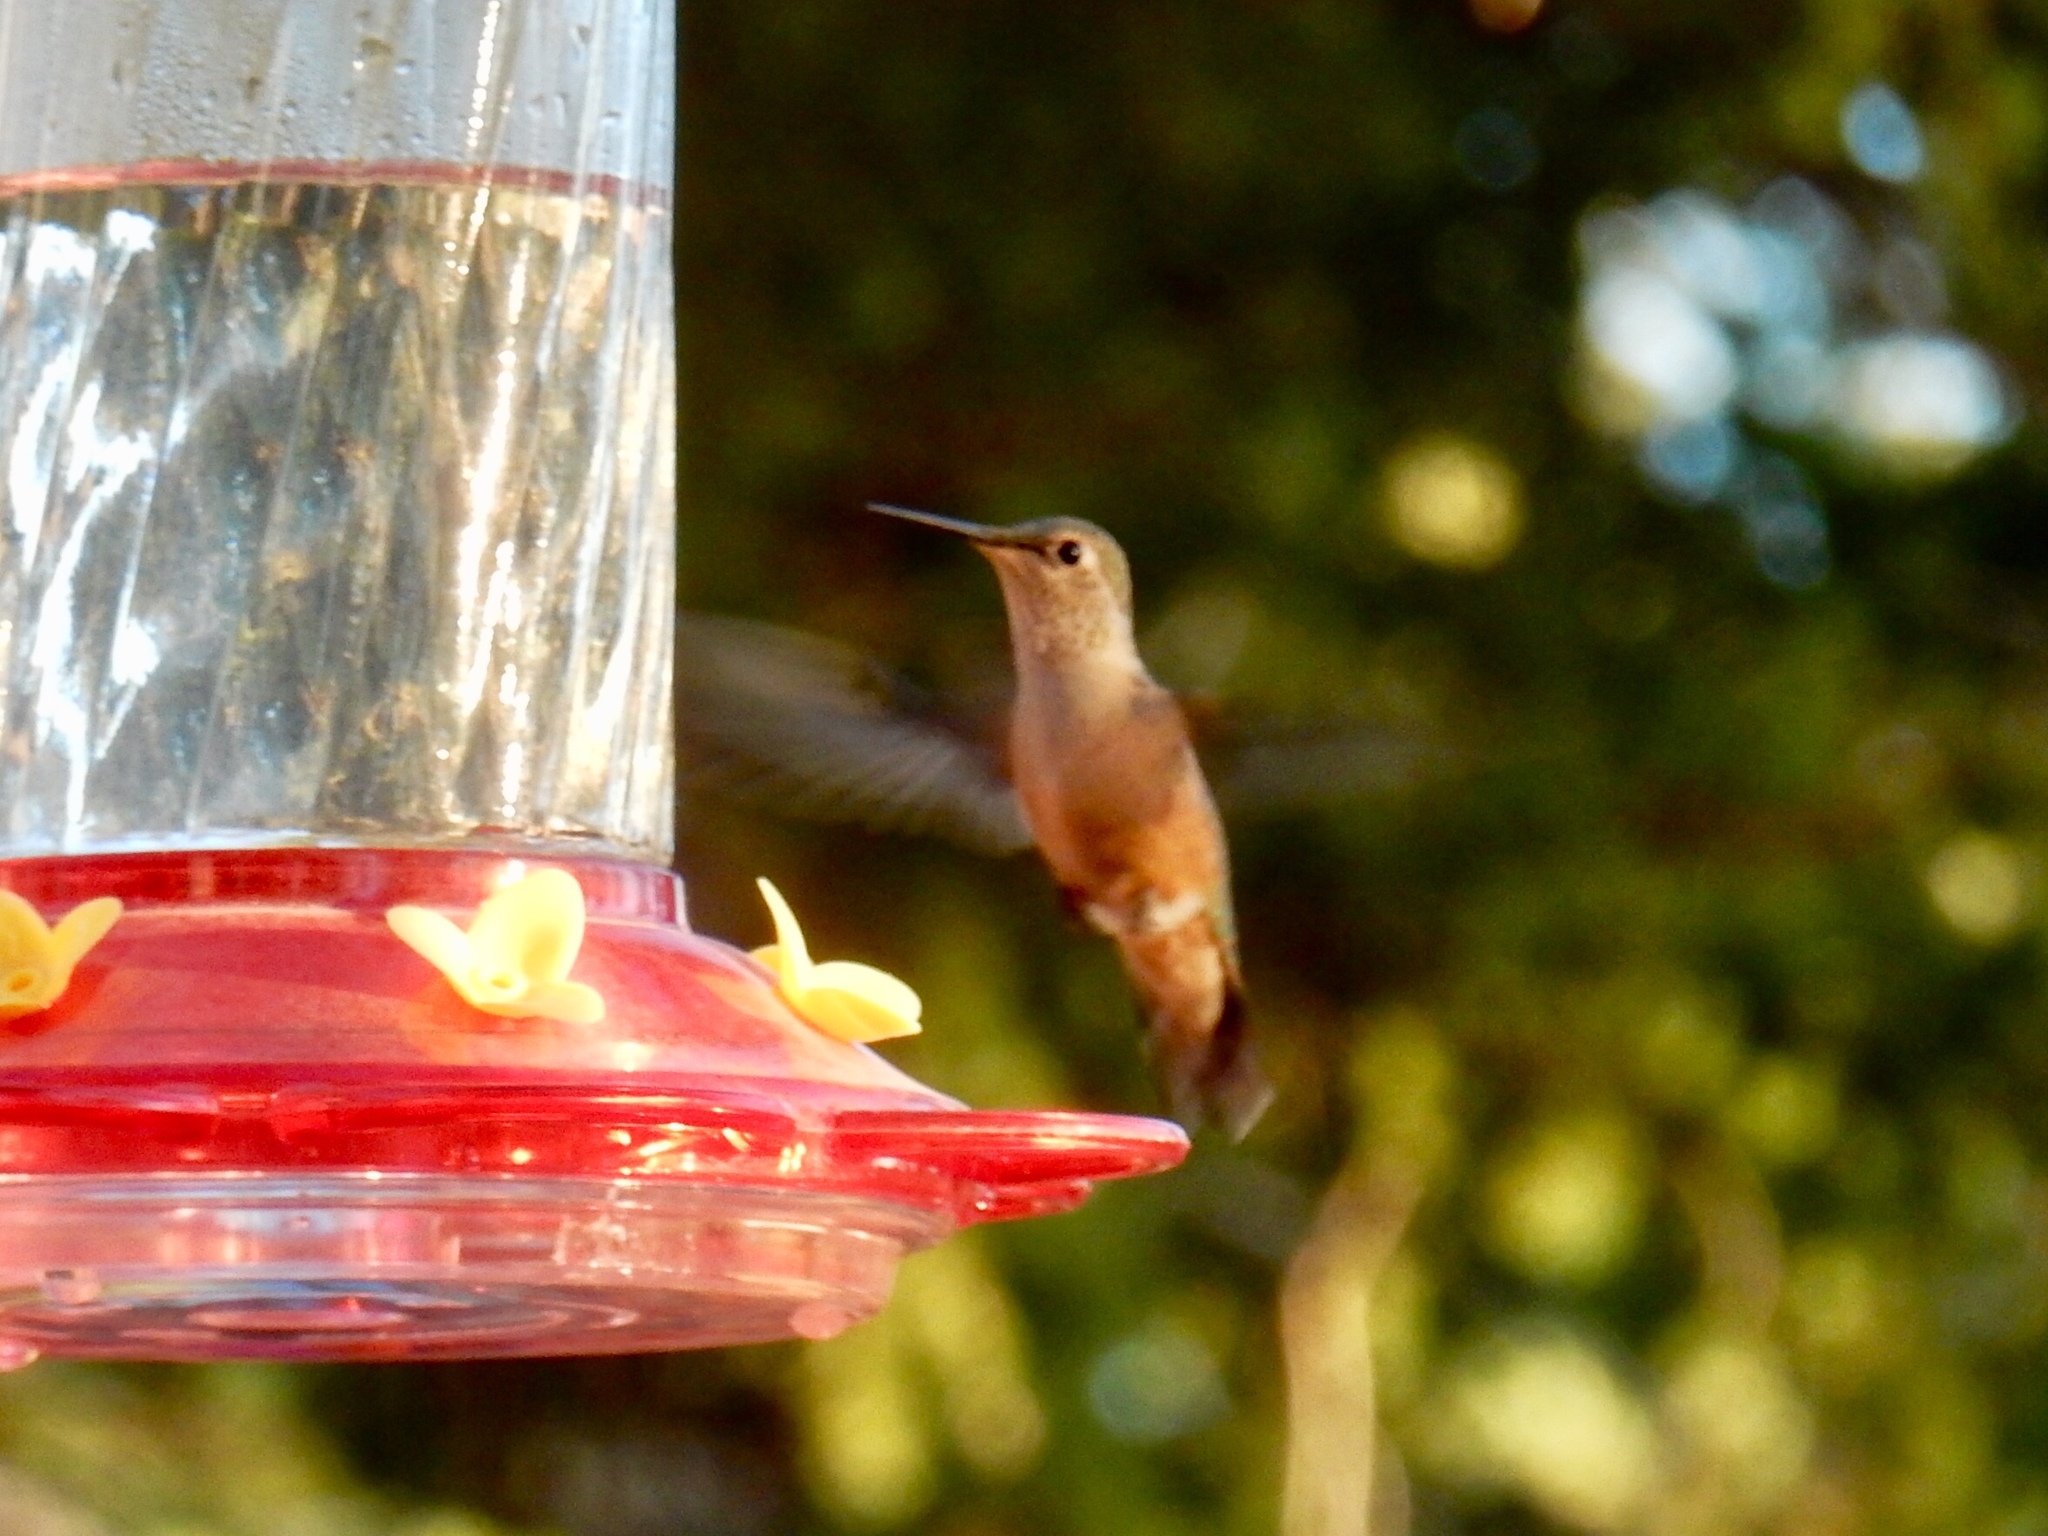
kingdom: Animalia
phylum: Chordata
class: Aves
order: Apodiformes
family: Trochilidae
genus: Selasphorus
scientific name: Selasphorus platycercus
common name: Broad-tailed hummingbird
